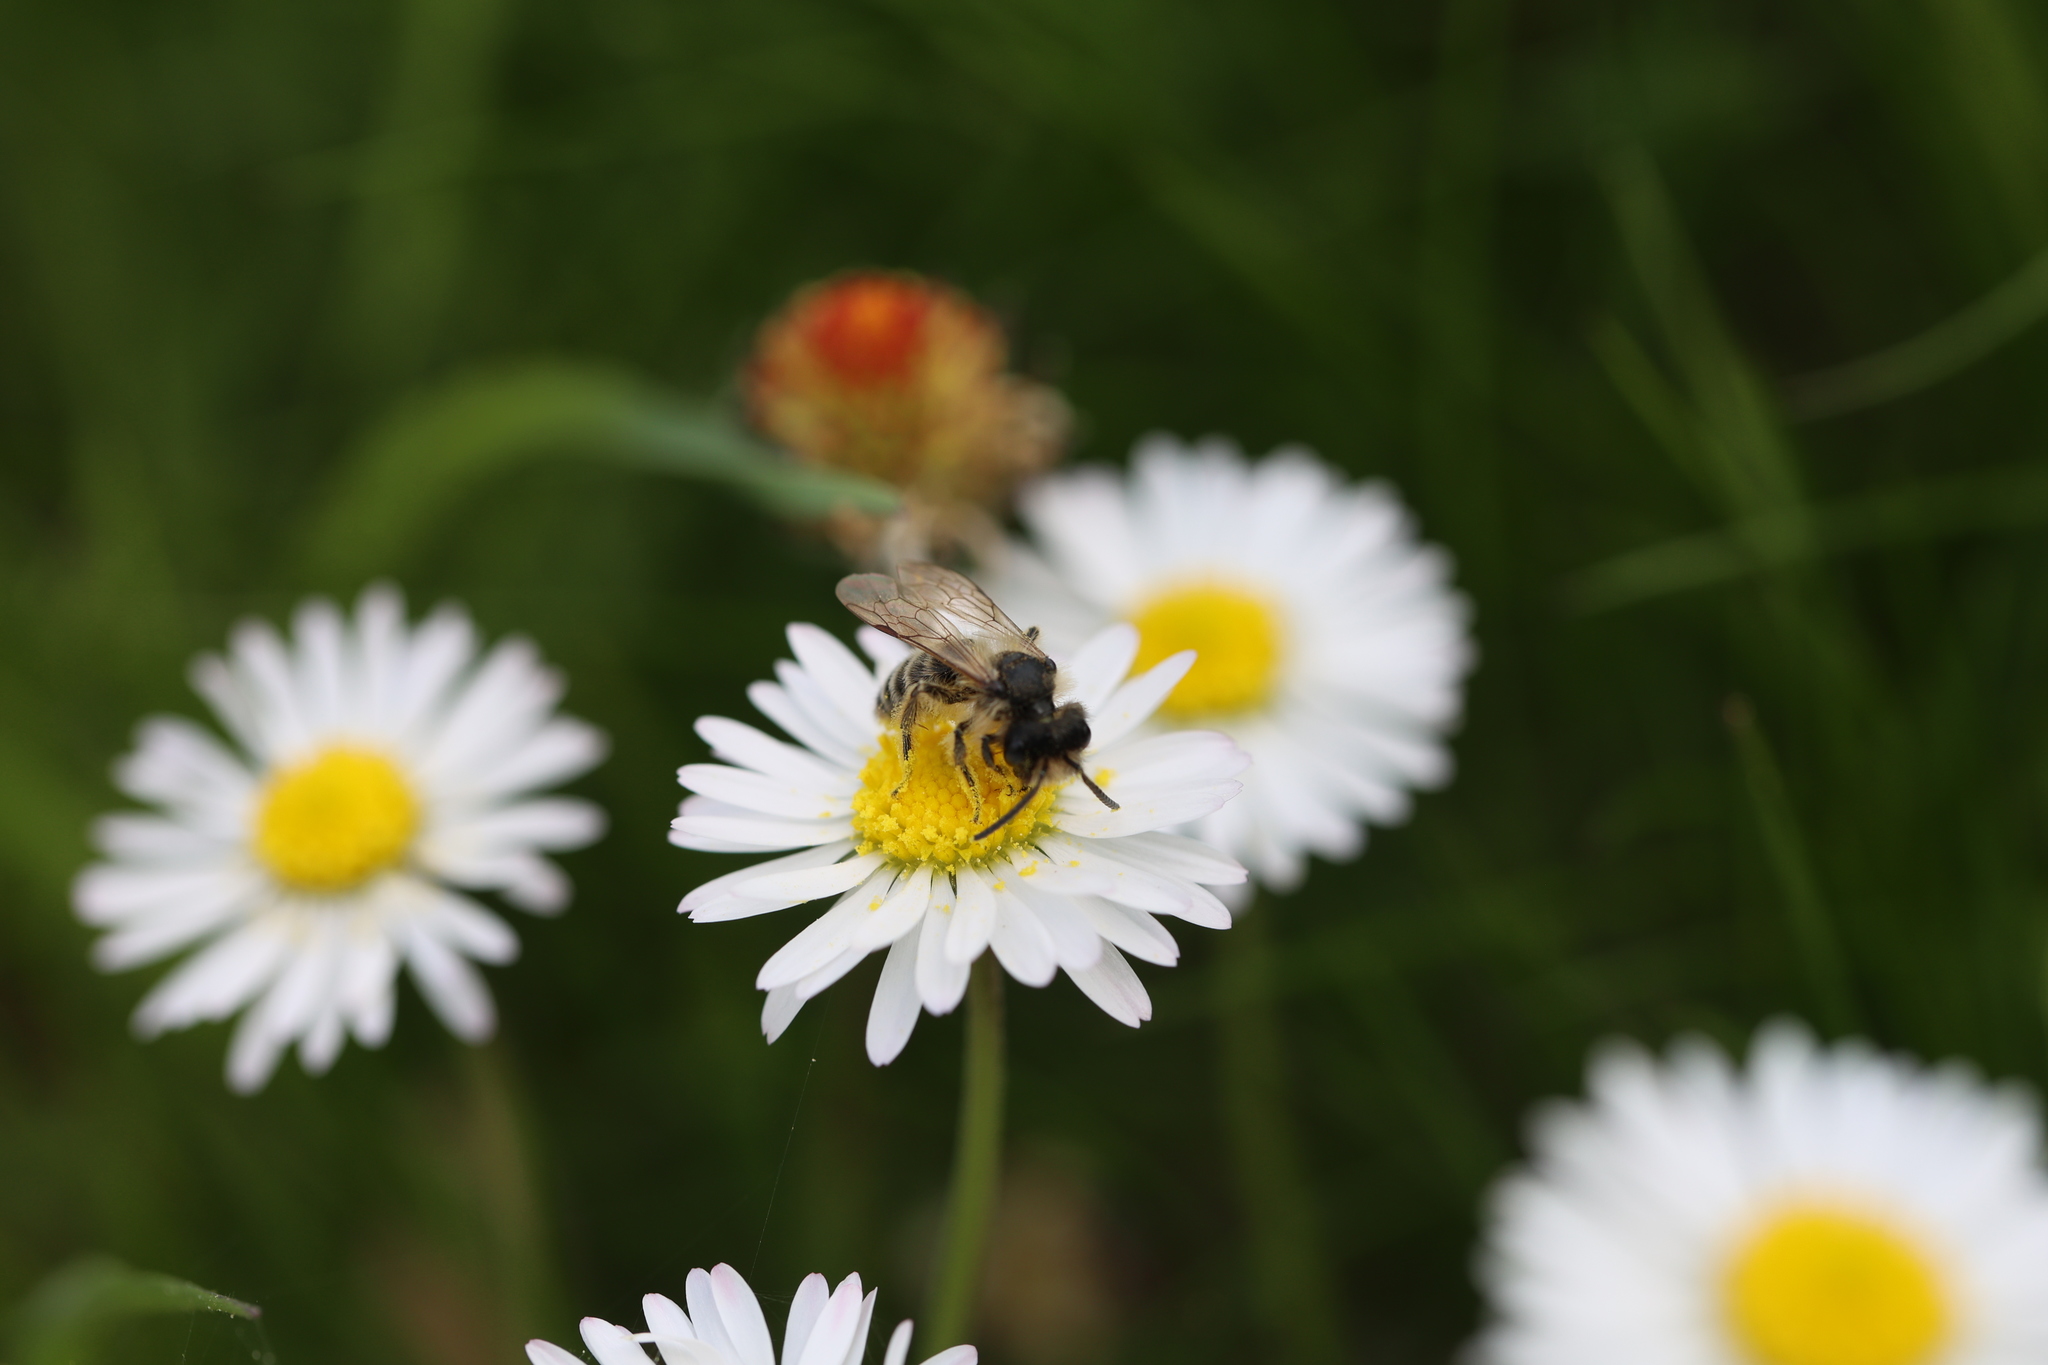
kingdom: Animalia
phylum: Arthropoda
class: Insecta
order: Hymenoptera
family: Andrenidae
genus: Andrena
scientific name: Andrena flavipes
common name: Yellow-legged mining bee
